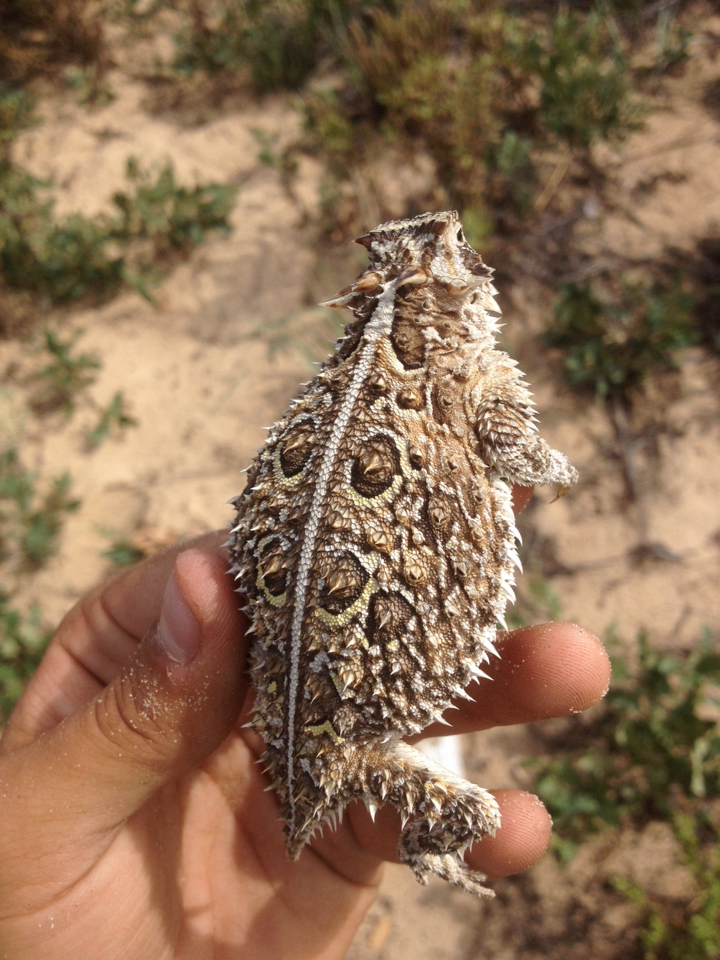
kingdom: Animalia
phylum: Chordata
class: Squamata
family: Phrynosomatidae
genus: Phrynosoma
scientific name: Phrynosoma cornutum
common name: Texas horned lizard
